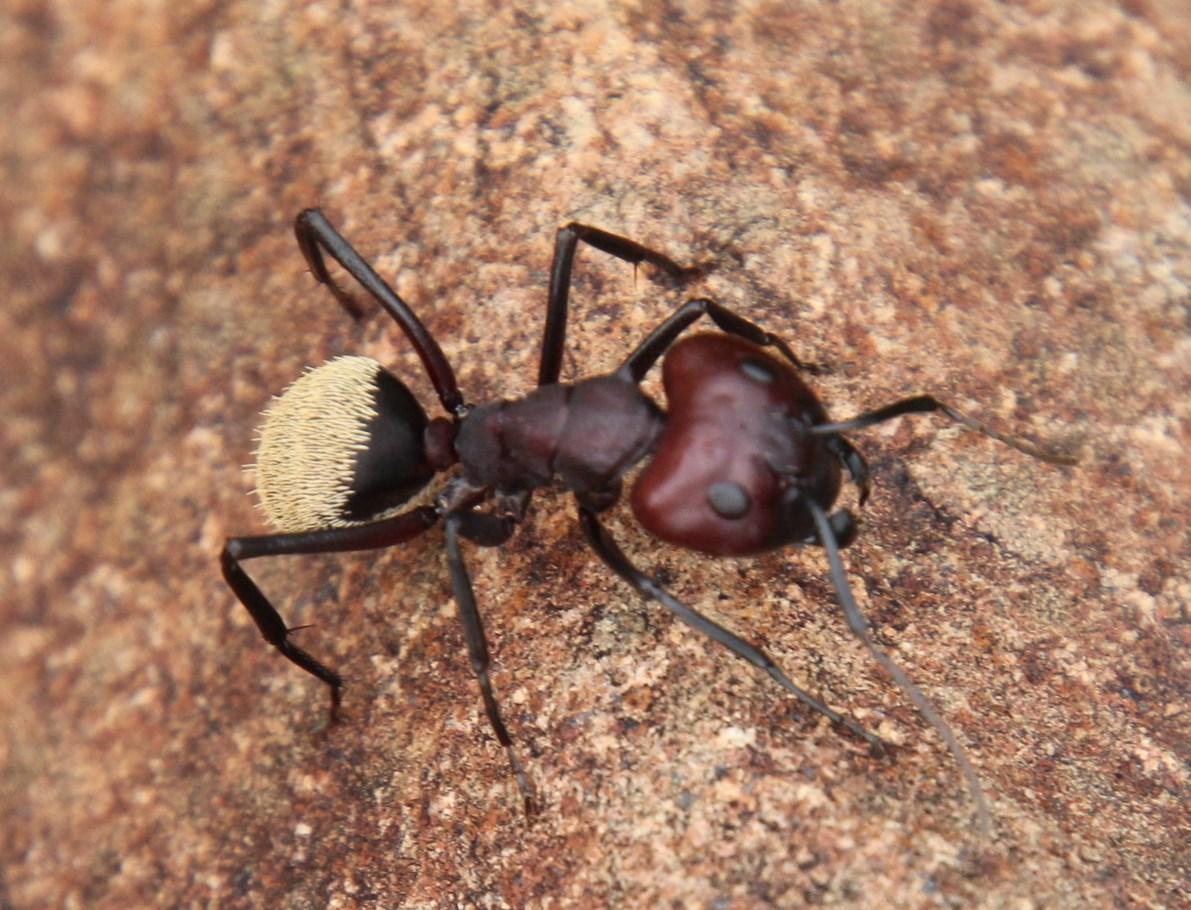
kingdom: Animalia
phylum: Arthropoda
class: Insecta
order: Hymenoptera
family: Formicidae
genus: Camponotus
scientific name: Camponotus storeatus
